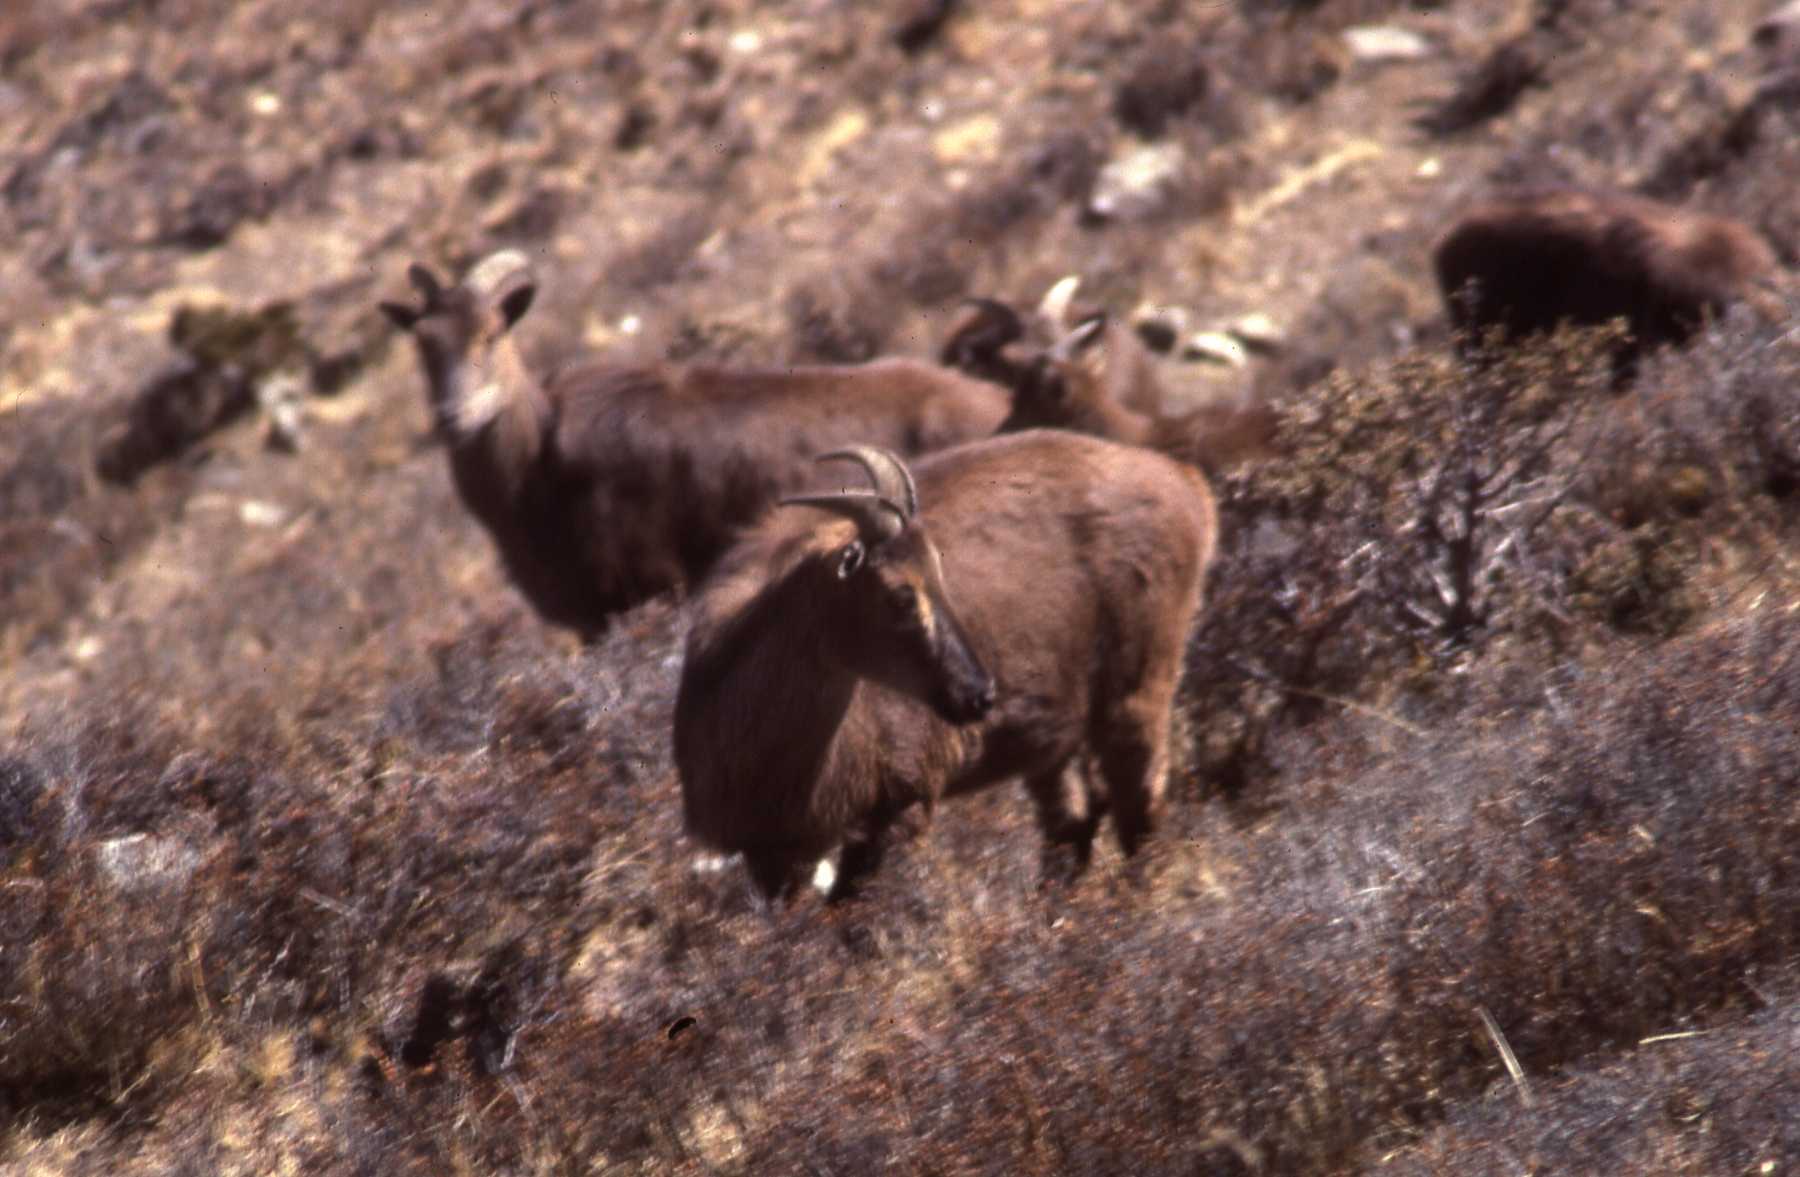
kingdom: Animalia
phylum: Chordata
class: Mammalia
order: Artiodactyla
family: Bovidae
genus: Hemitragus
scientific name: Hemitragus jemlahicus
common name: Himalayan tahr
